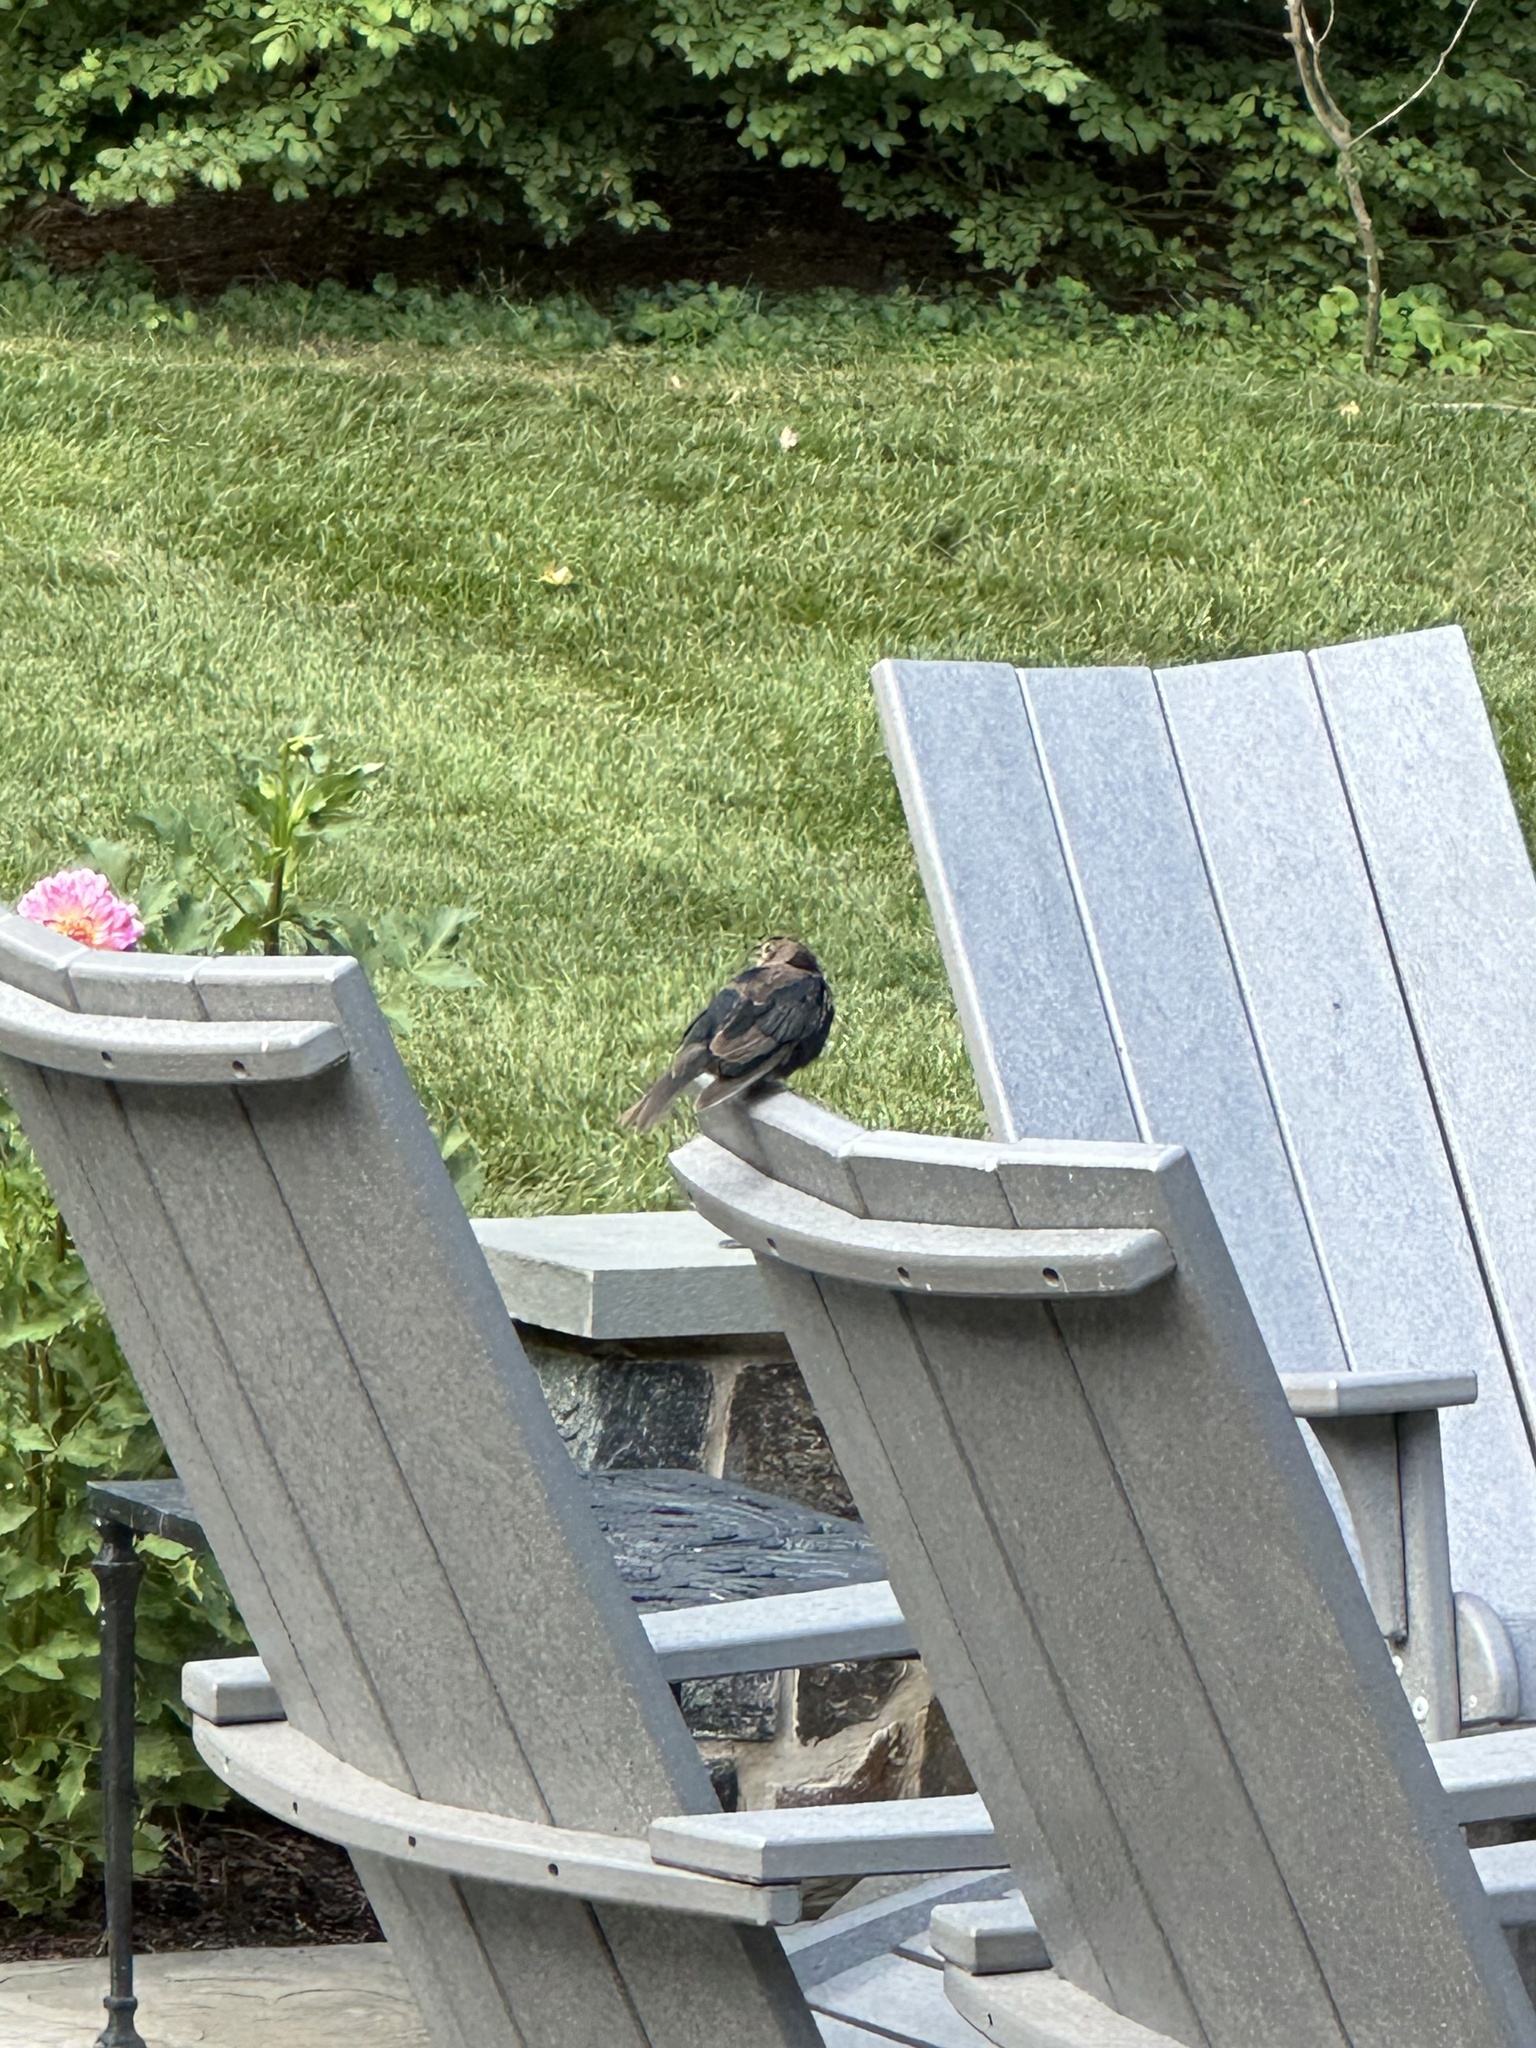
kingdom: Animalia
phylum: Chordata
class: Aves
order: Passeriformes
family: Icteridae
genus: Molothrus
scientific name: Molothrus ater
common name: Brown-headed cowbird
